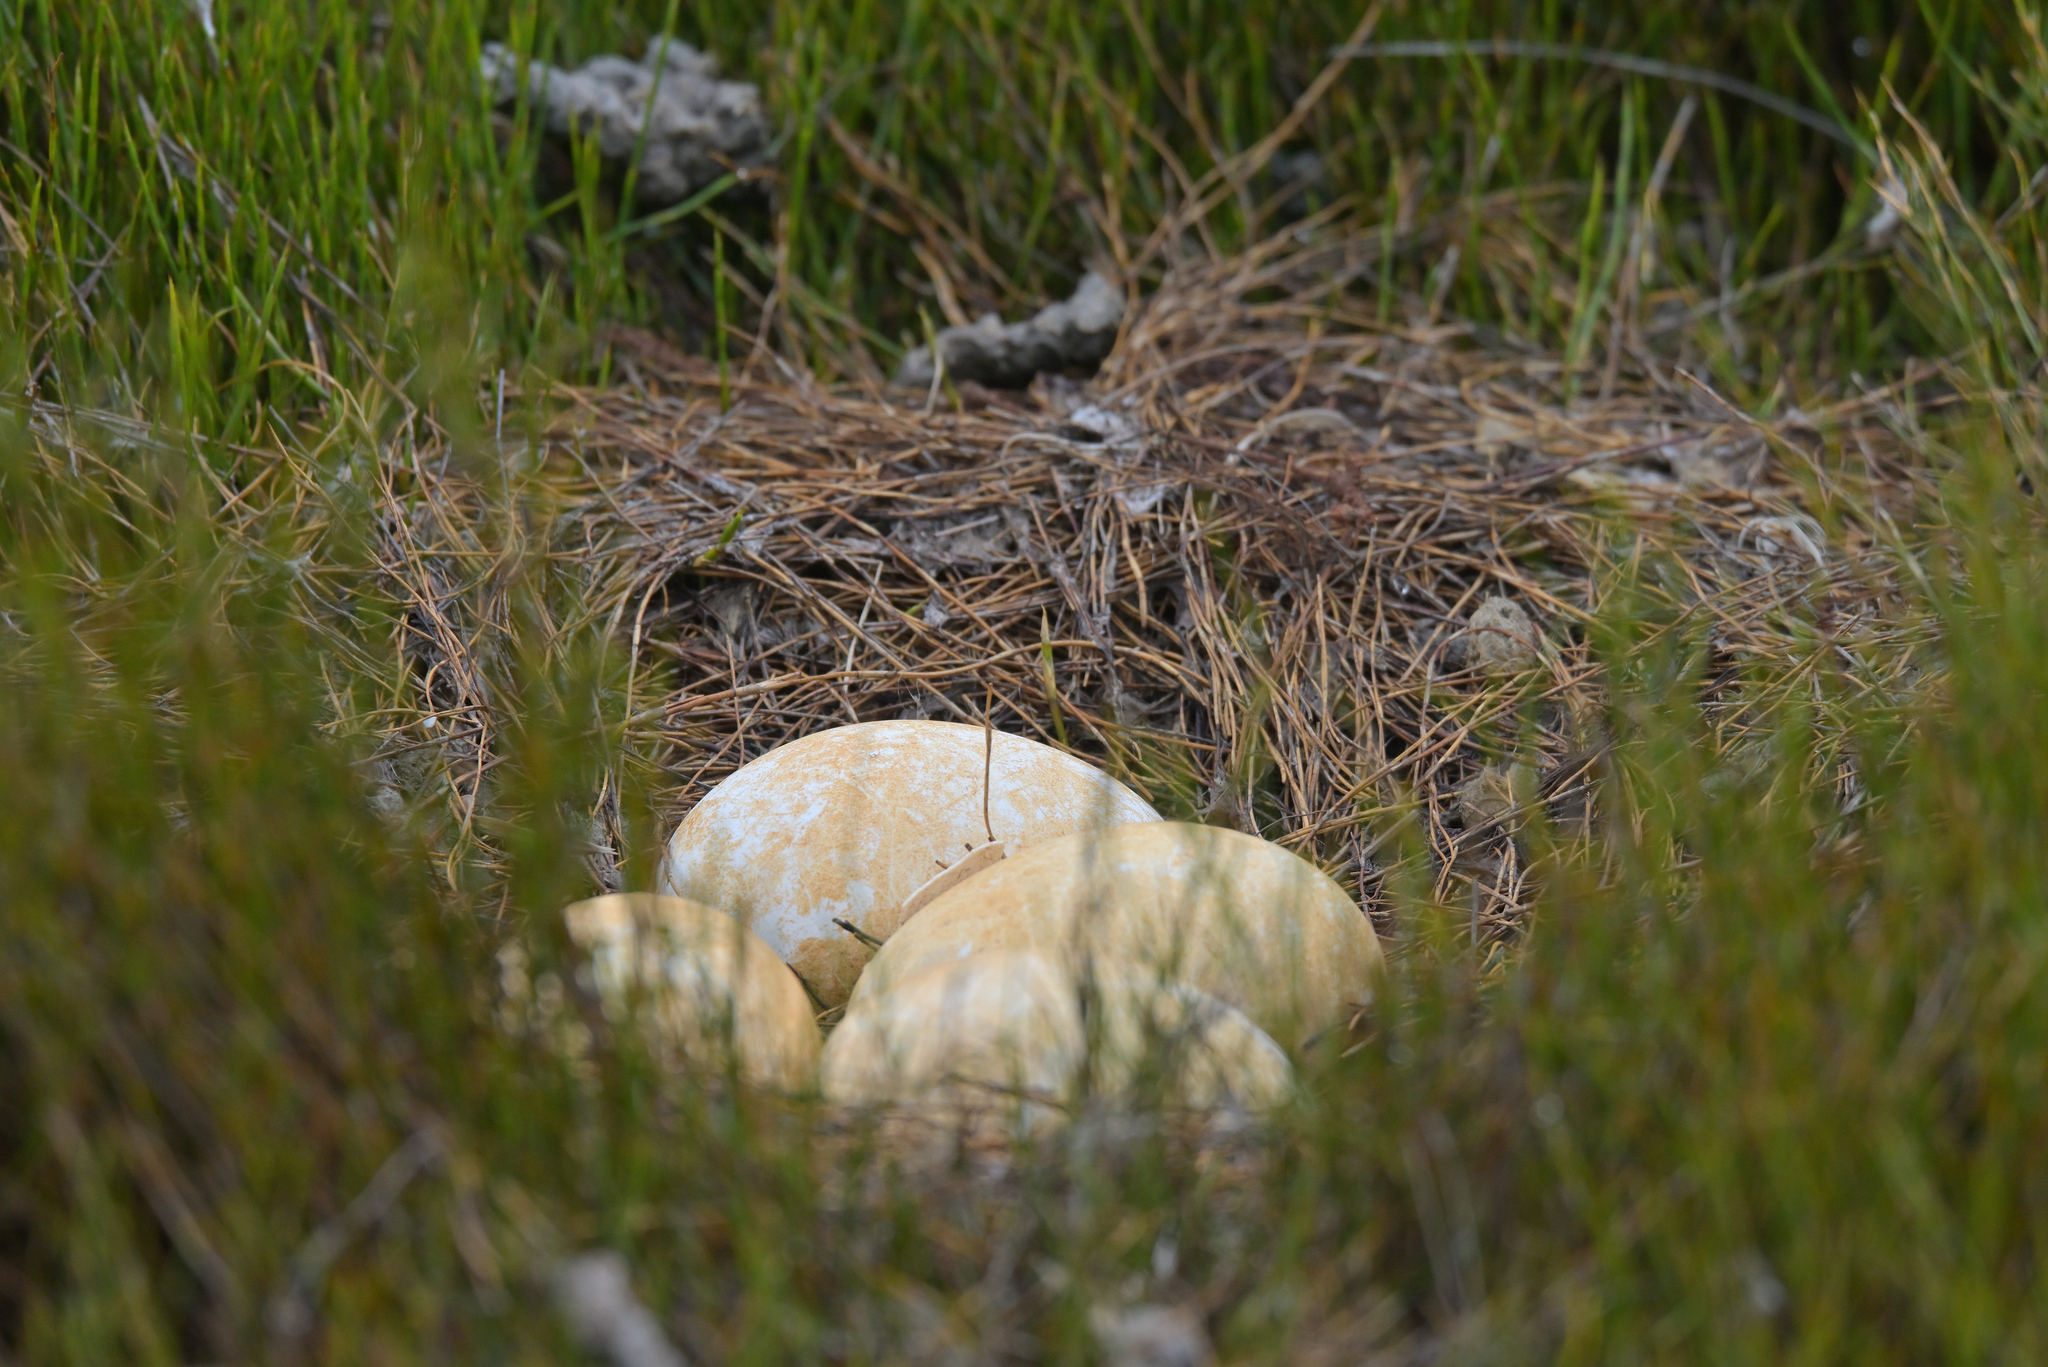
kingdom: Animalia
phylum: Chordata
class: Aves
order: Anseriformes
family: Anatidae
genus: Branta
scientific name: Branta canadensis
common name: Canada goose
